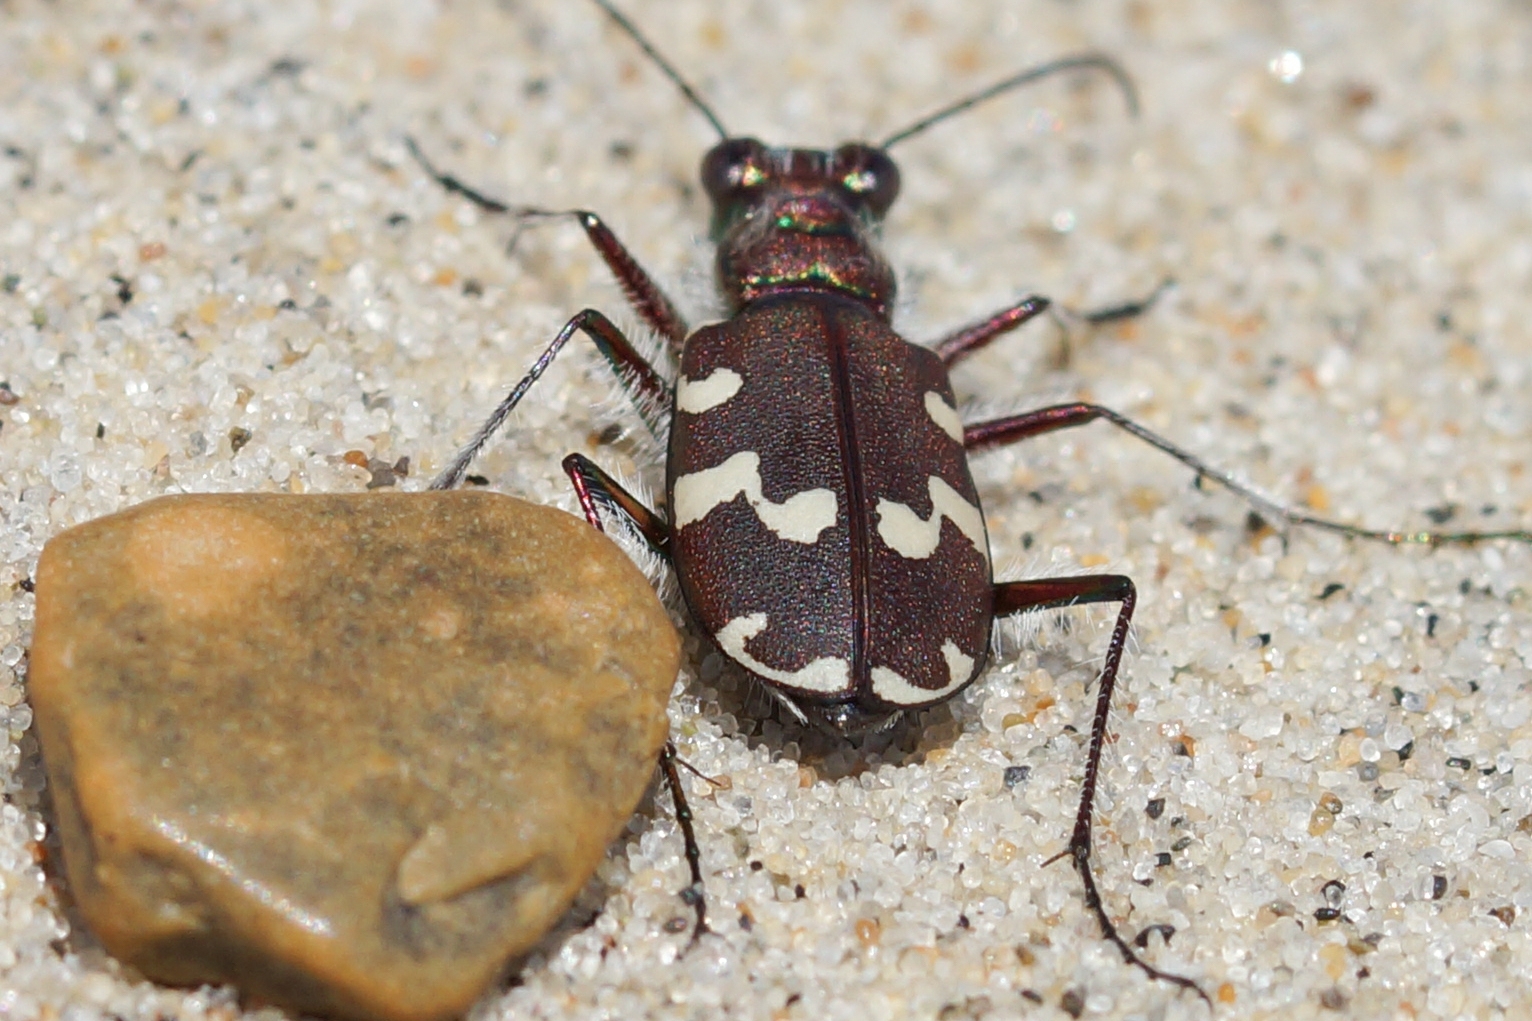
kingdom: Animalia
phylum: Arthropoda
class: Insecta
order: Coleoptera
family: Carabidae
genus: Cicindela
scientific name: Cicindela maritima
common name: Dune tiger beetle
